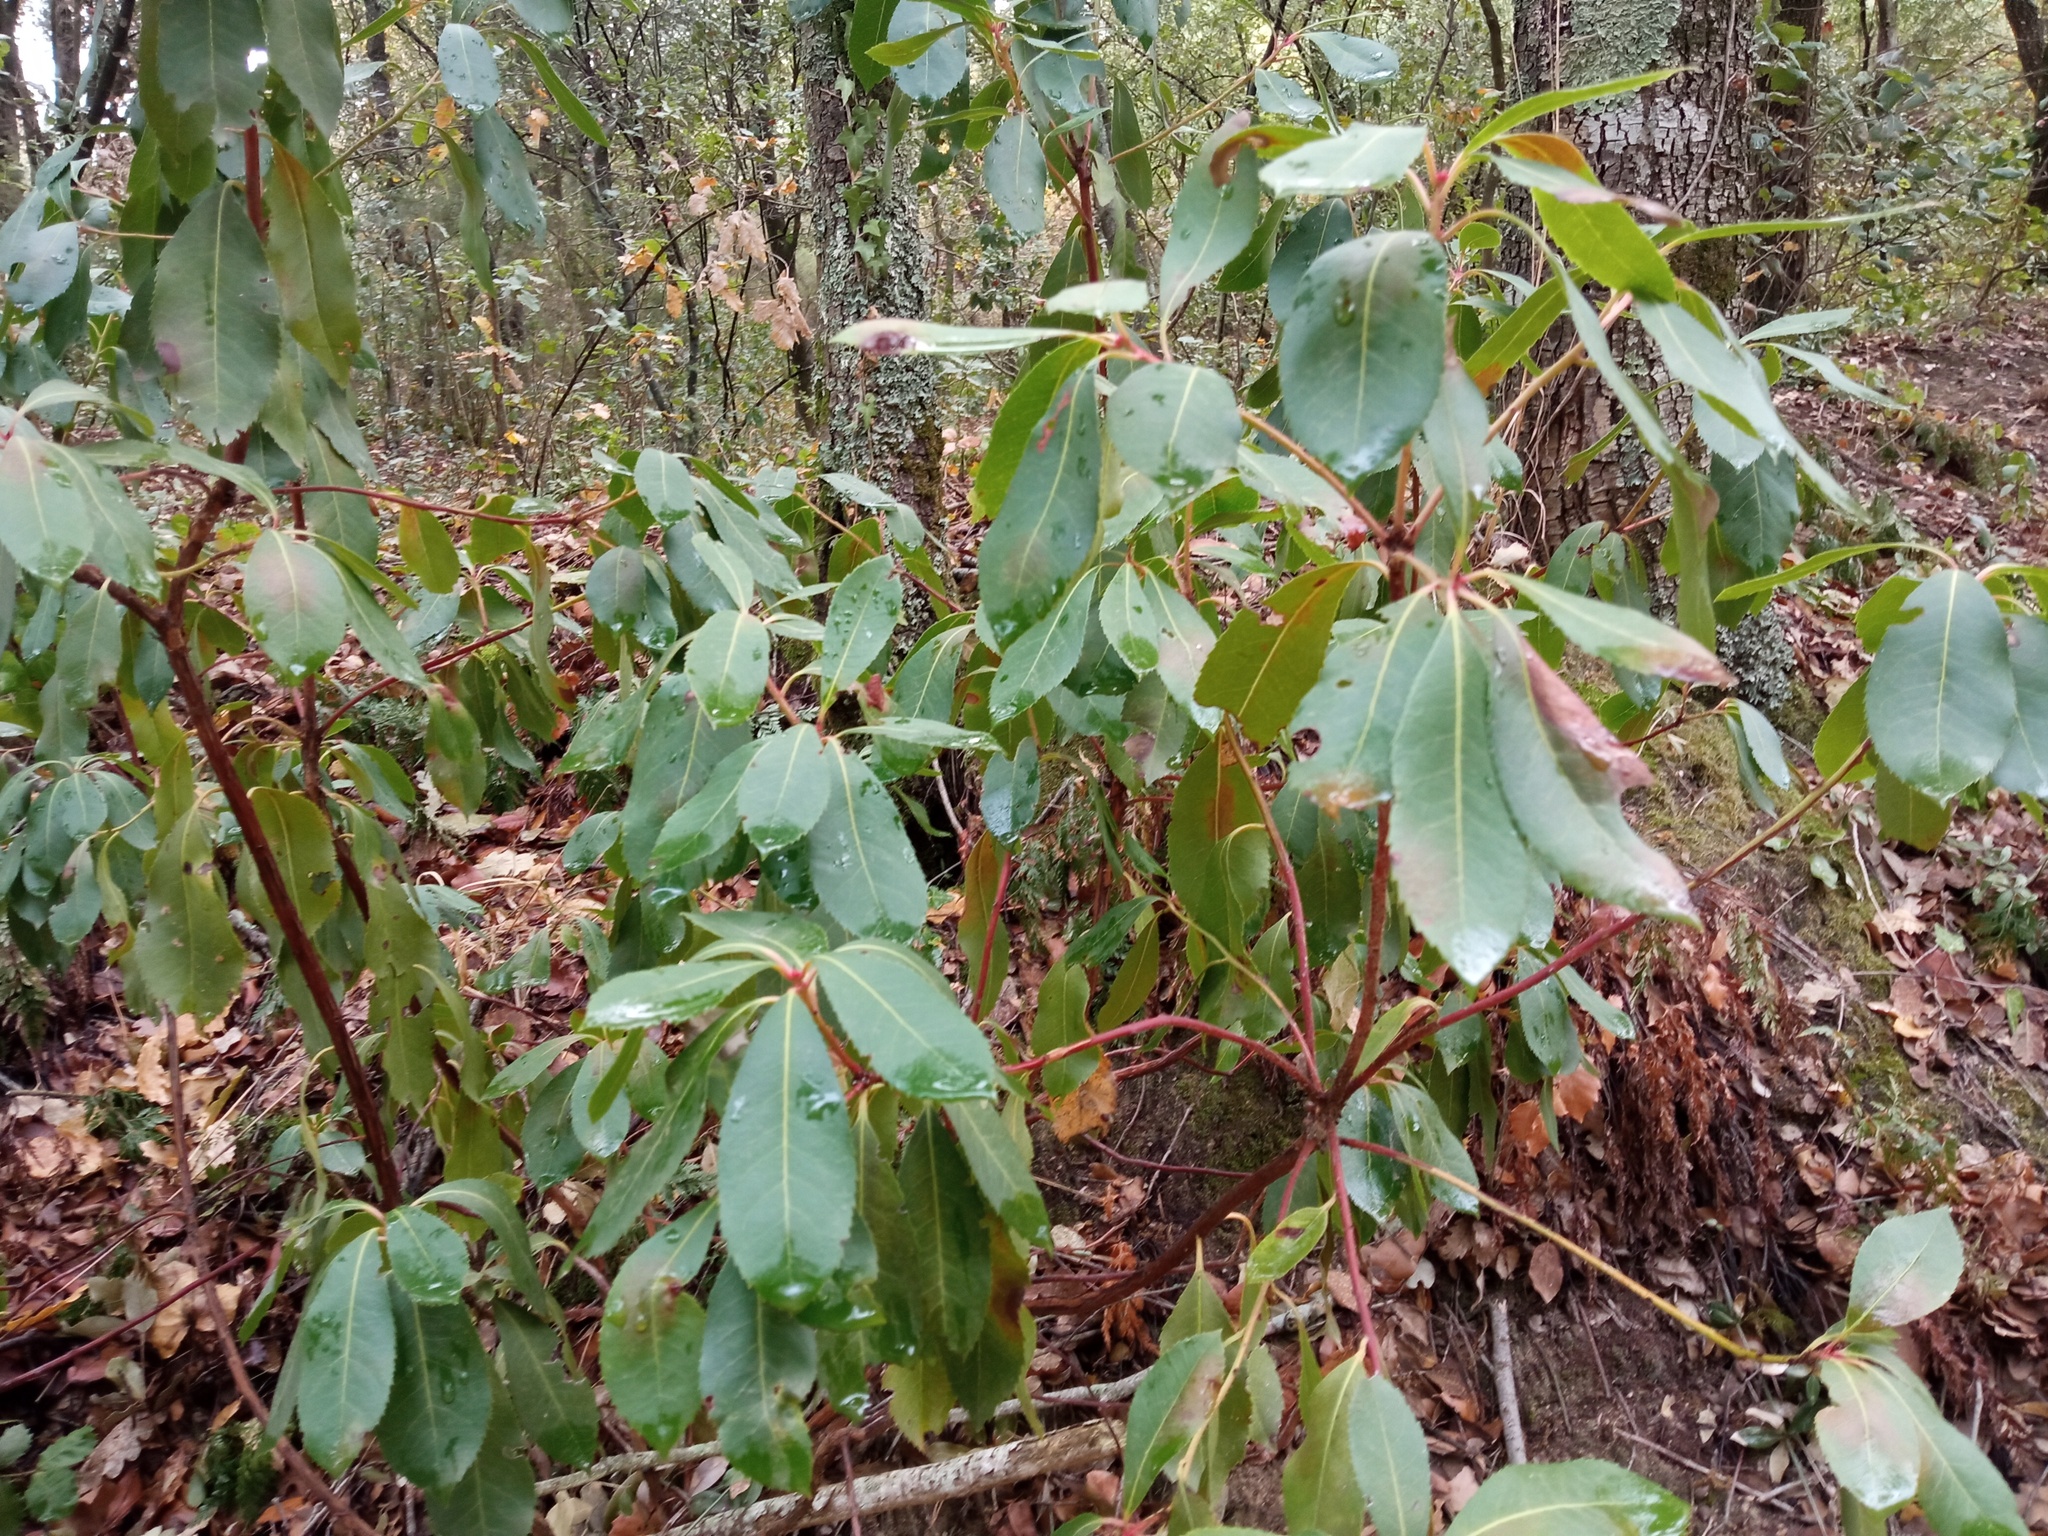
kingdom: Plantae
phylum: Tracheophyta
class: Magnoliopsida
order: Ericales
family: Ericaceae
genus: Arbutus
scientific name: Arbutus unedo
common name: Strawberry-tree
